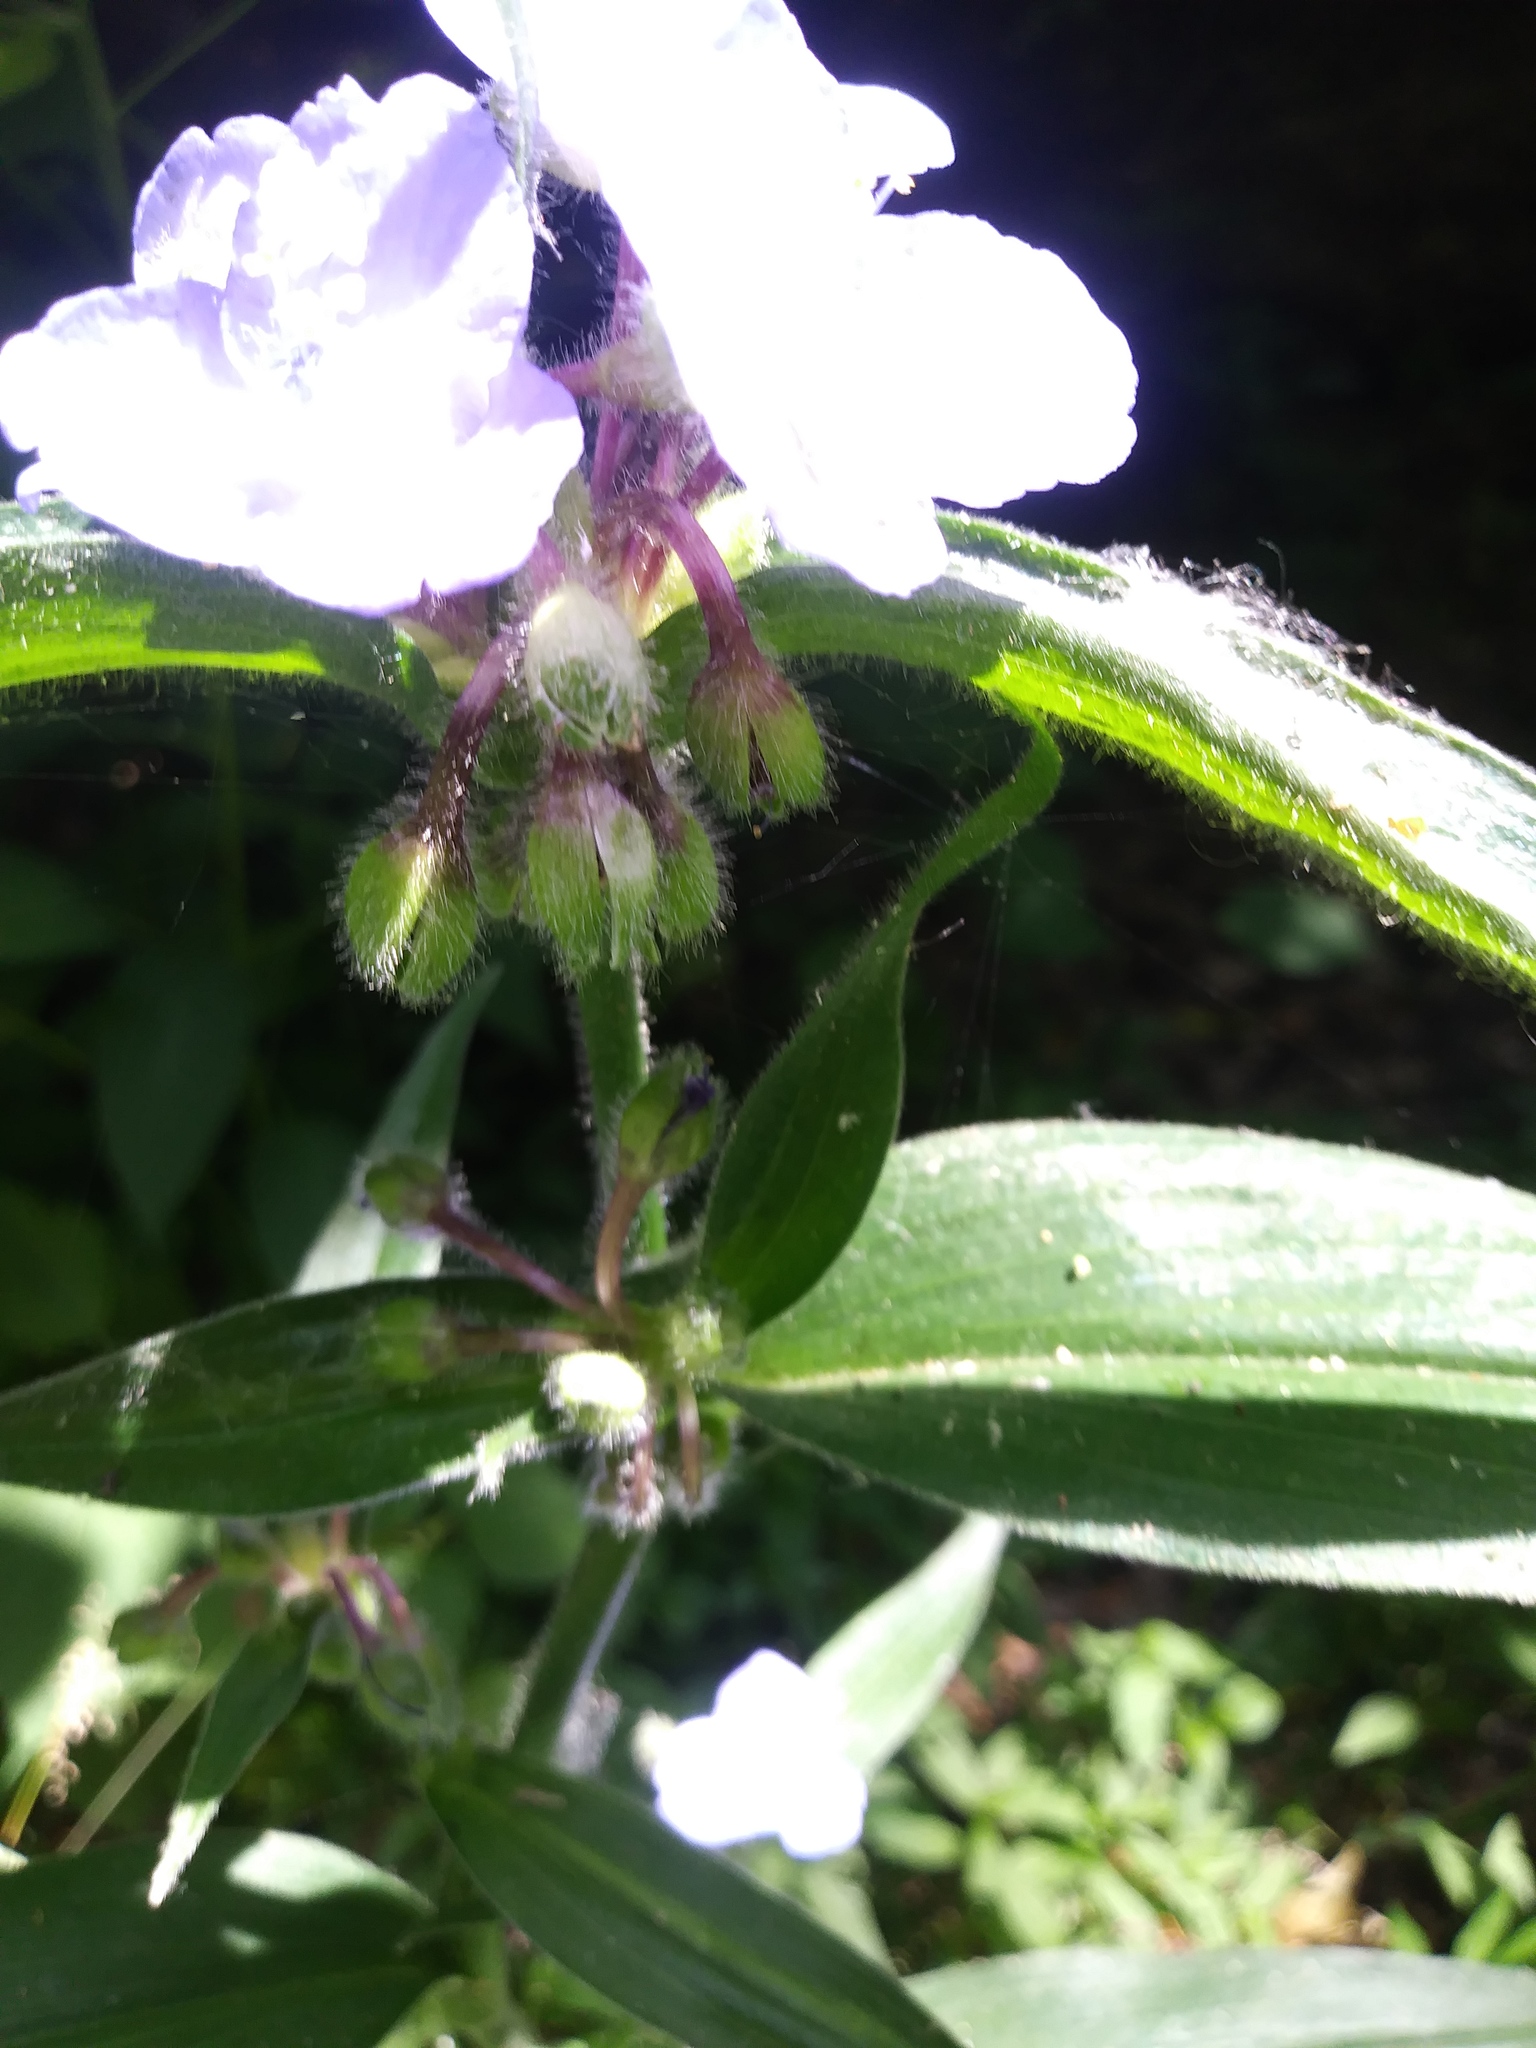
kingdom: Plantae
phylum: Tracheophyta
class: Liliopsida
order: Commelinales
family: Commelinaceae
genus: Tradescantia
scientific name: Tradescantia subaspera
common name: Wide-leaf spiderwort
